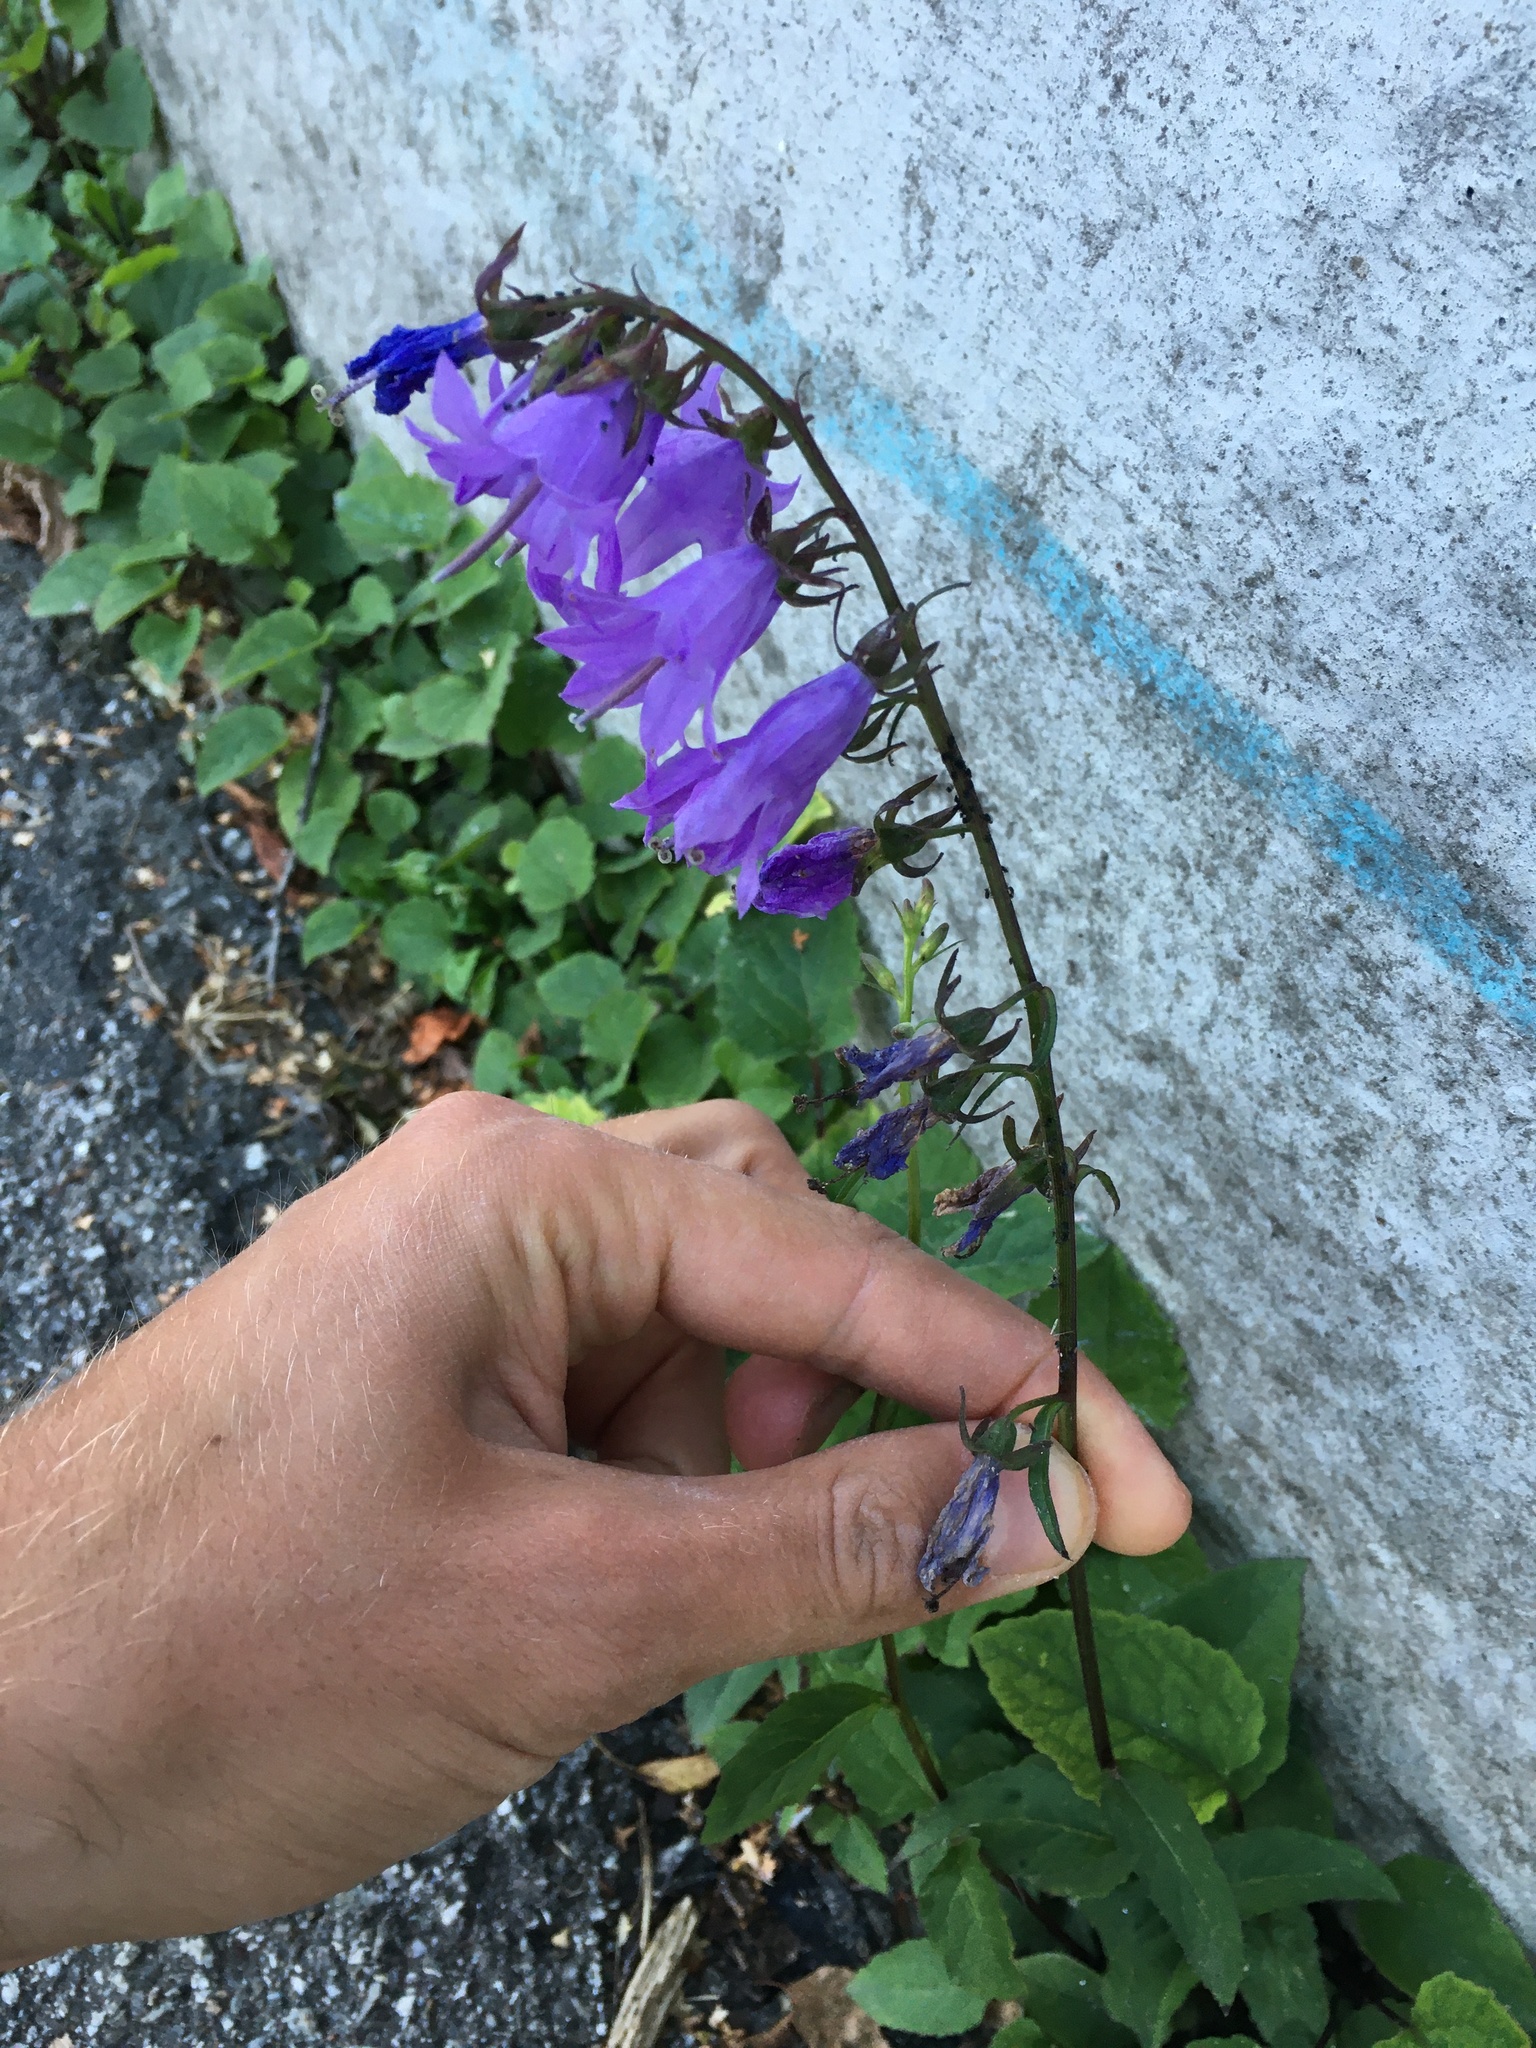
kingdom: Plantae
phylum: Tracheophyta
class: Magnoliopsida
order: Asterales
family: Campanulaceae
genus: Campanula
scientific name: Campanula rapunculoides
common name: Creeping bellflower
